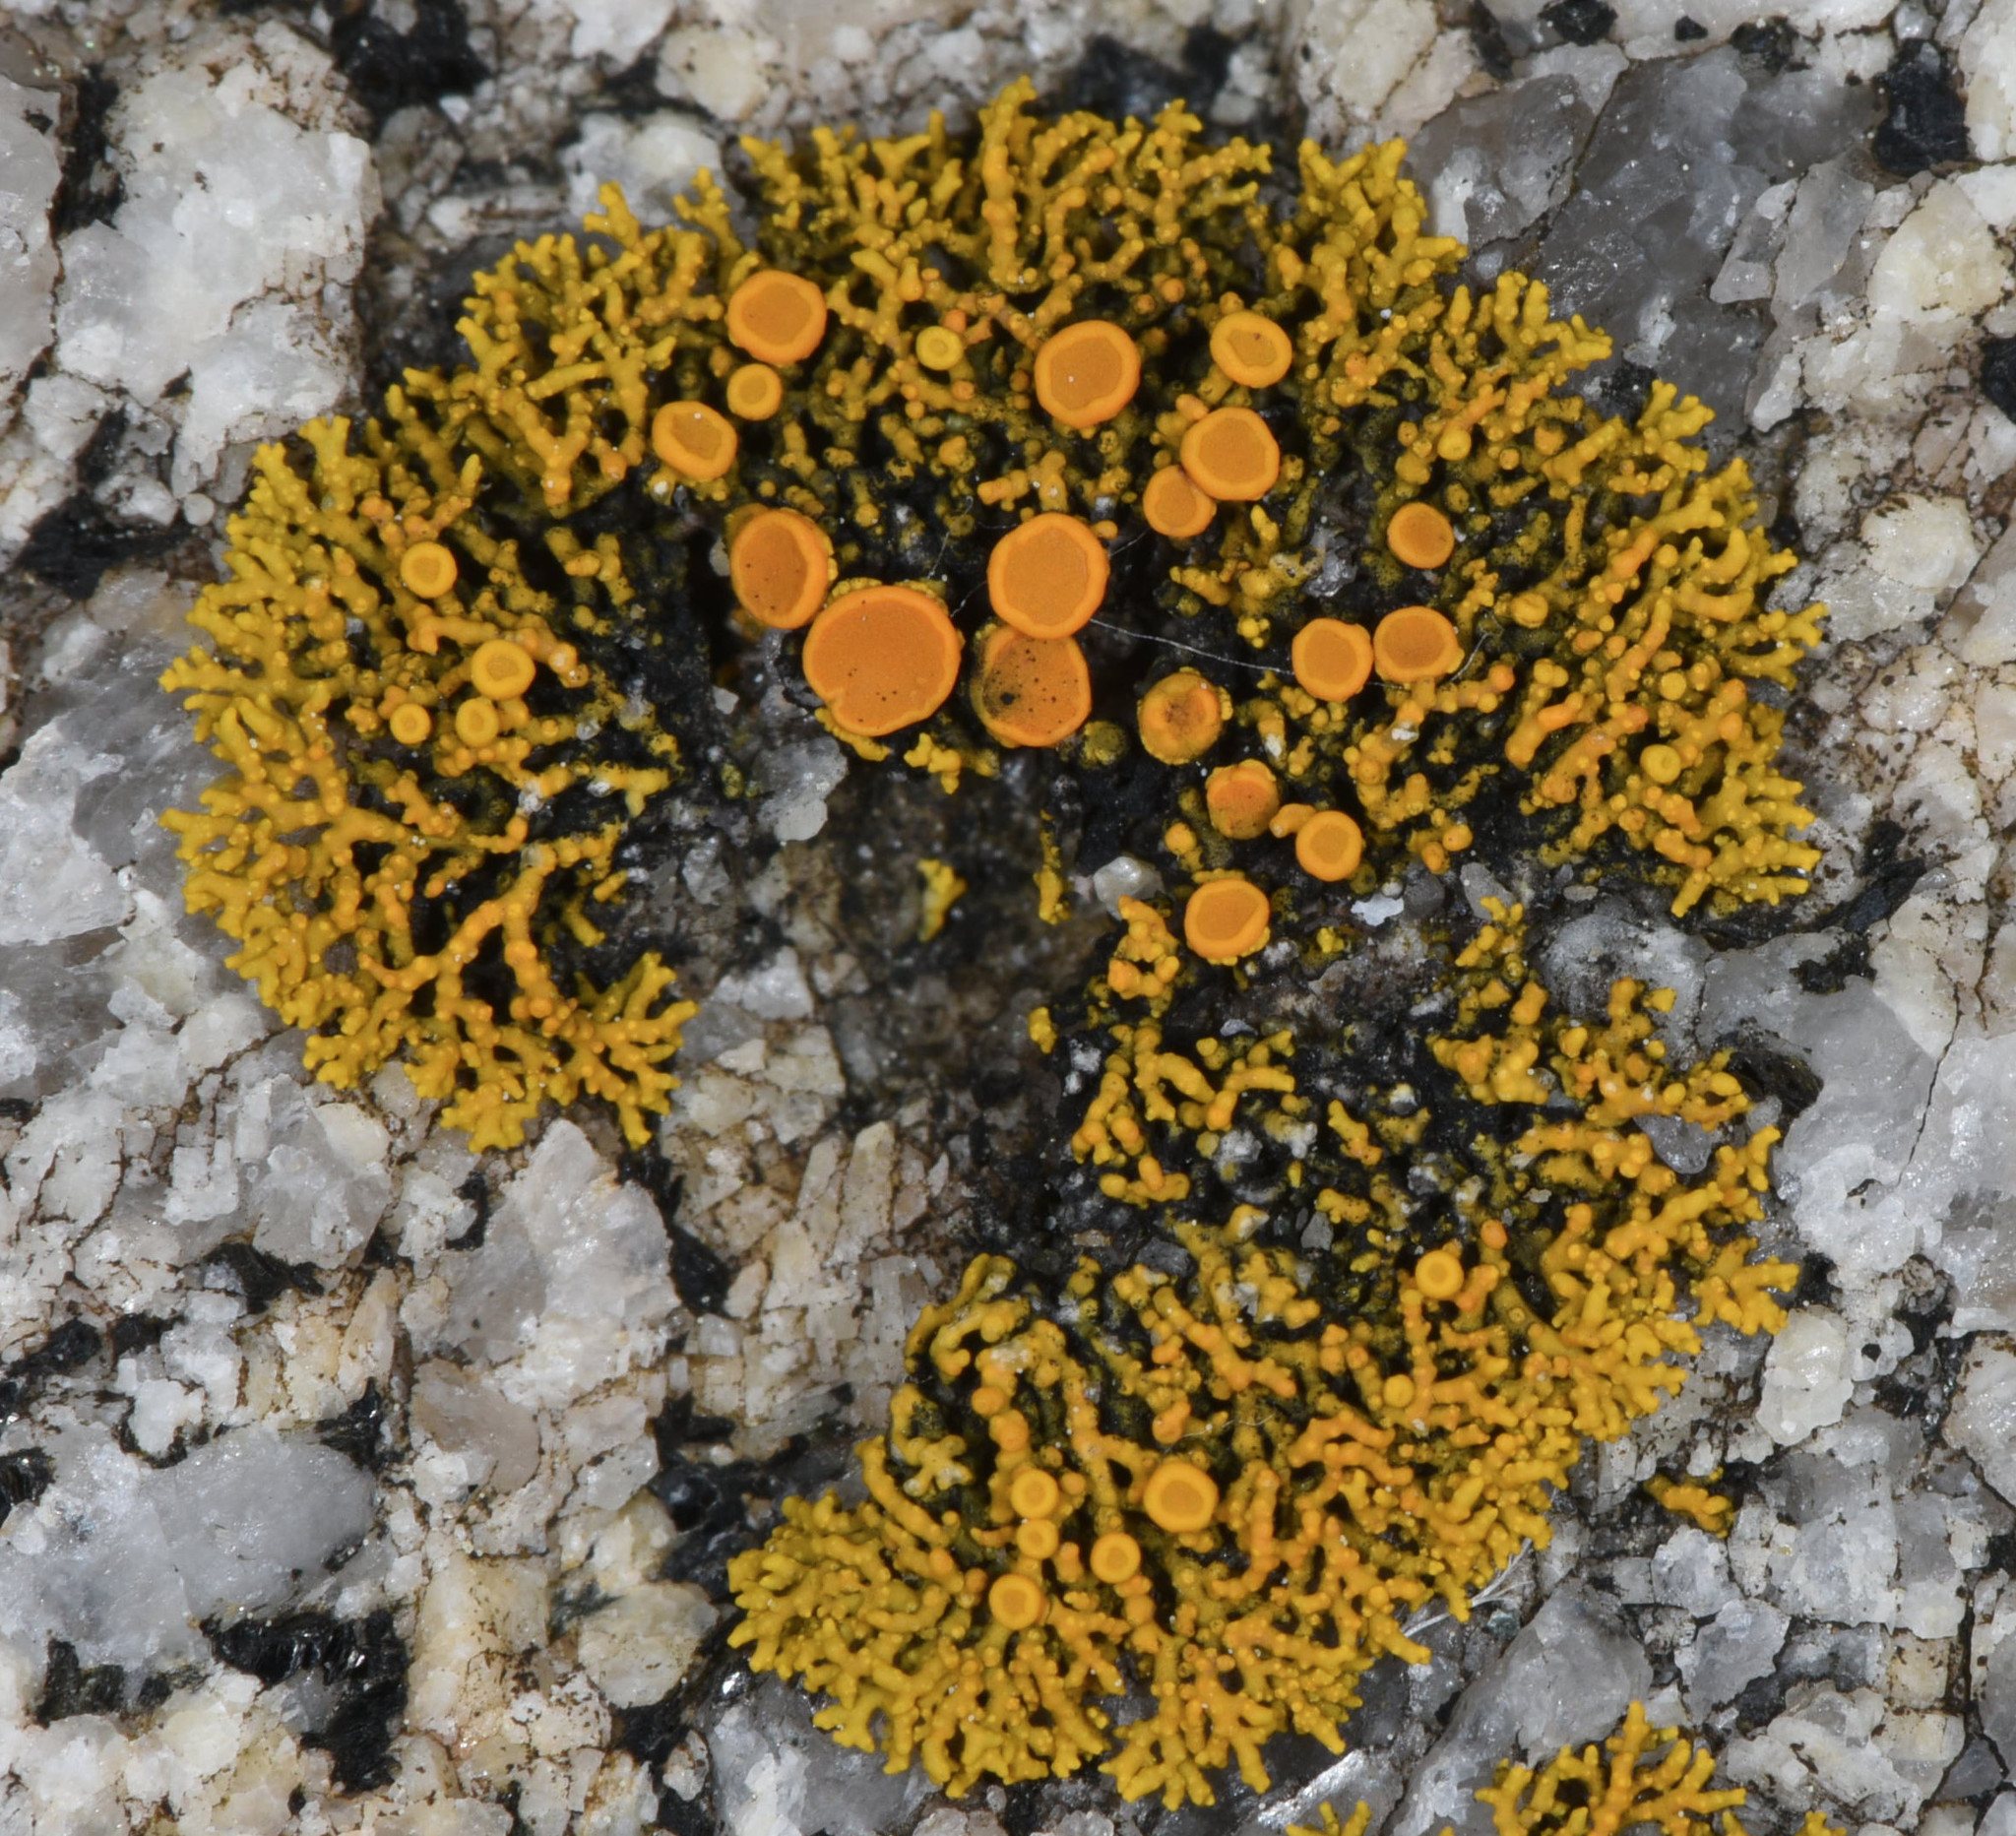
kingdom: Fungi
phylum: Ascomycota
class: Lecanoromycetes
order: Teloschistales
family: Teloschistaceae
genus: Polycauliona
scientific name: Polycauliona coralloides
